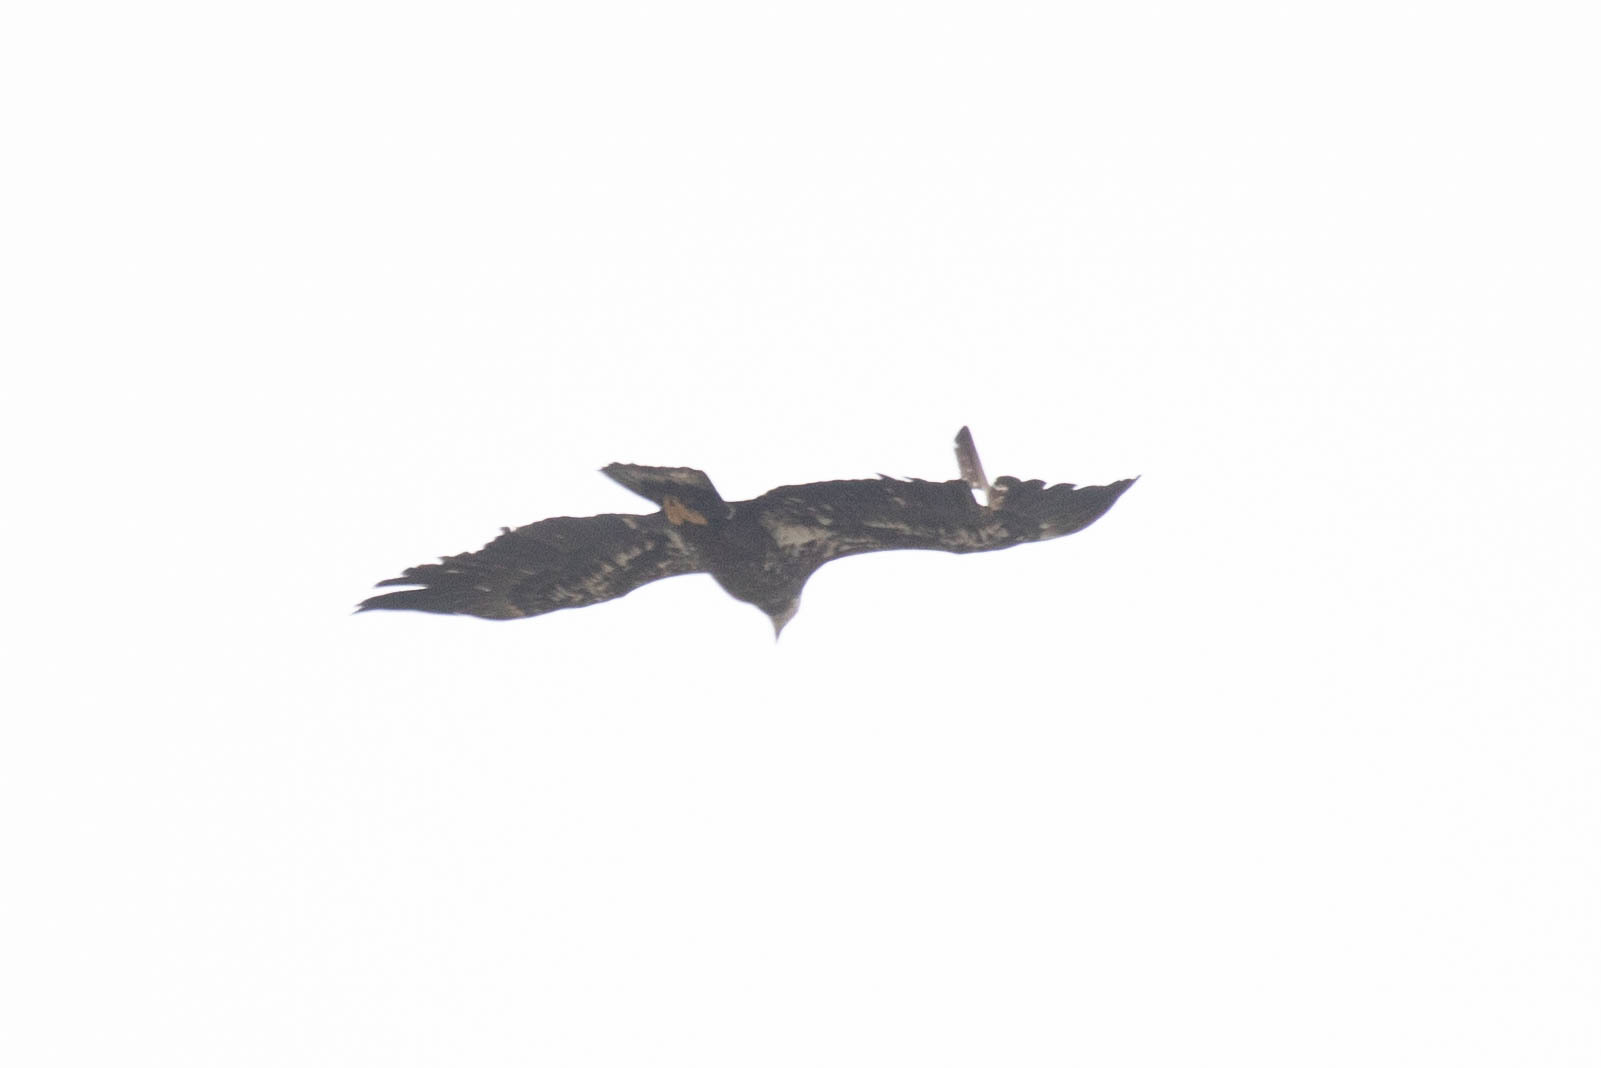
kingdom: Animalia
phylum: Chordata
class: Aves
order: Accipitriformes
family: Accipitridae
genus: Haliaeetus
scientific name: Haliaeetus leucocephalus
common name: Bald eagle
